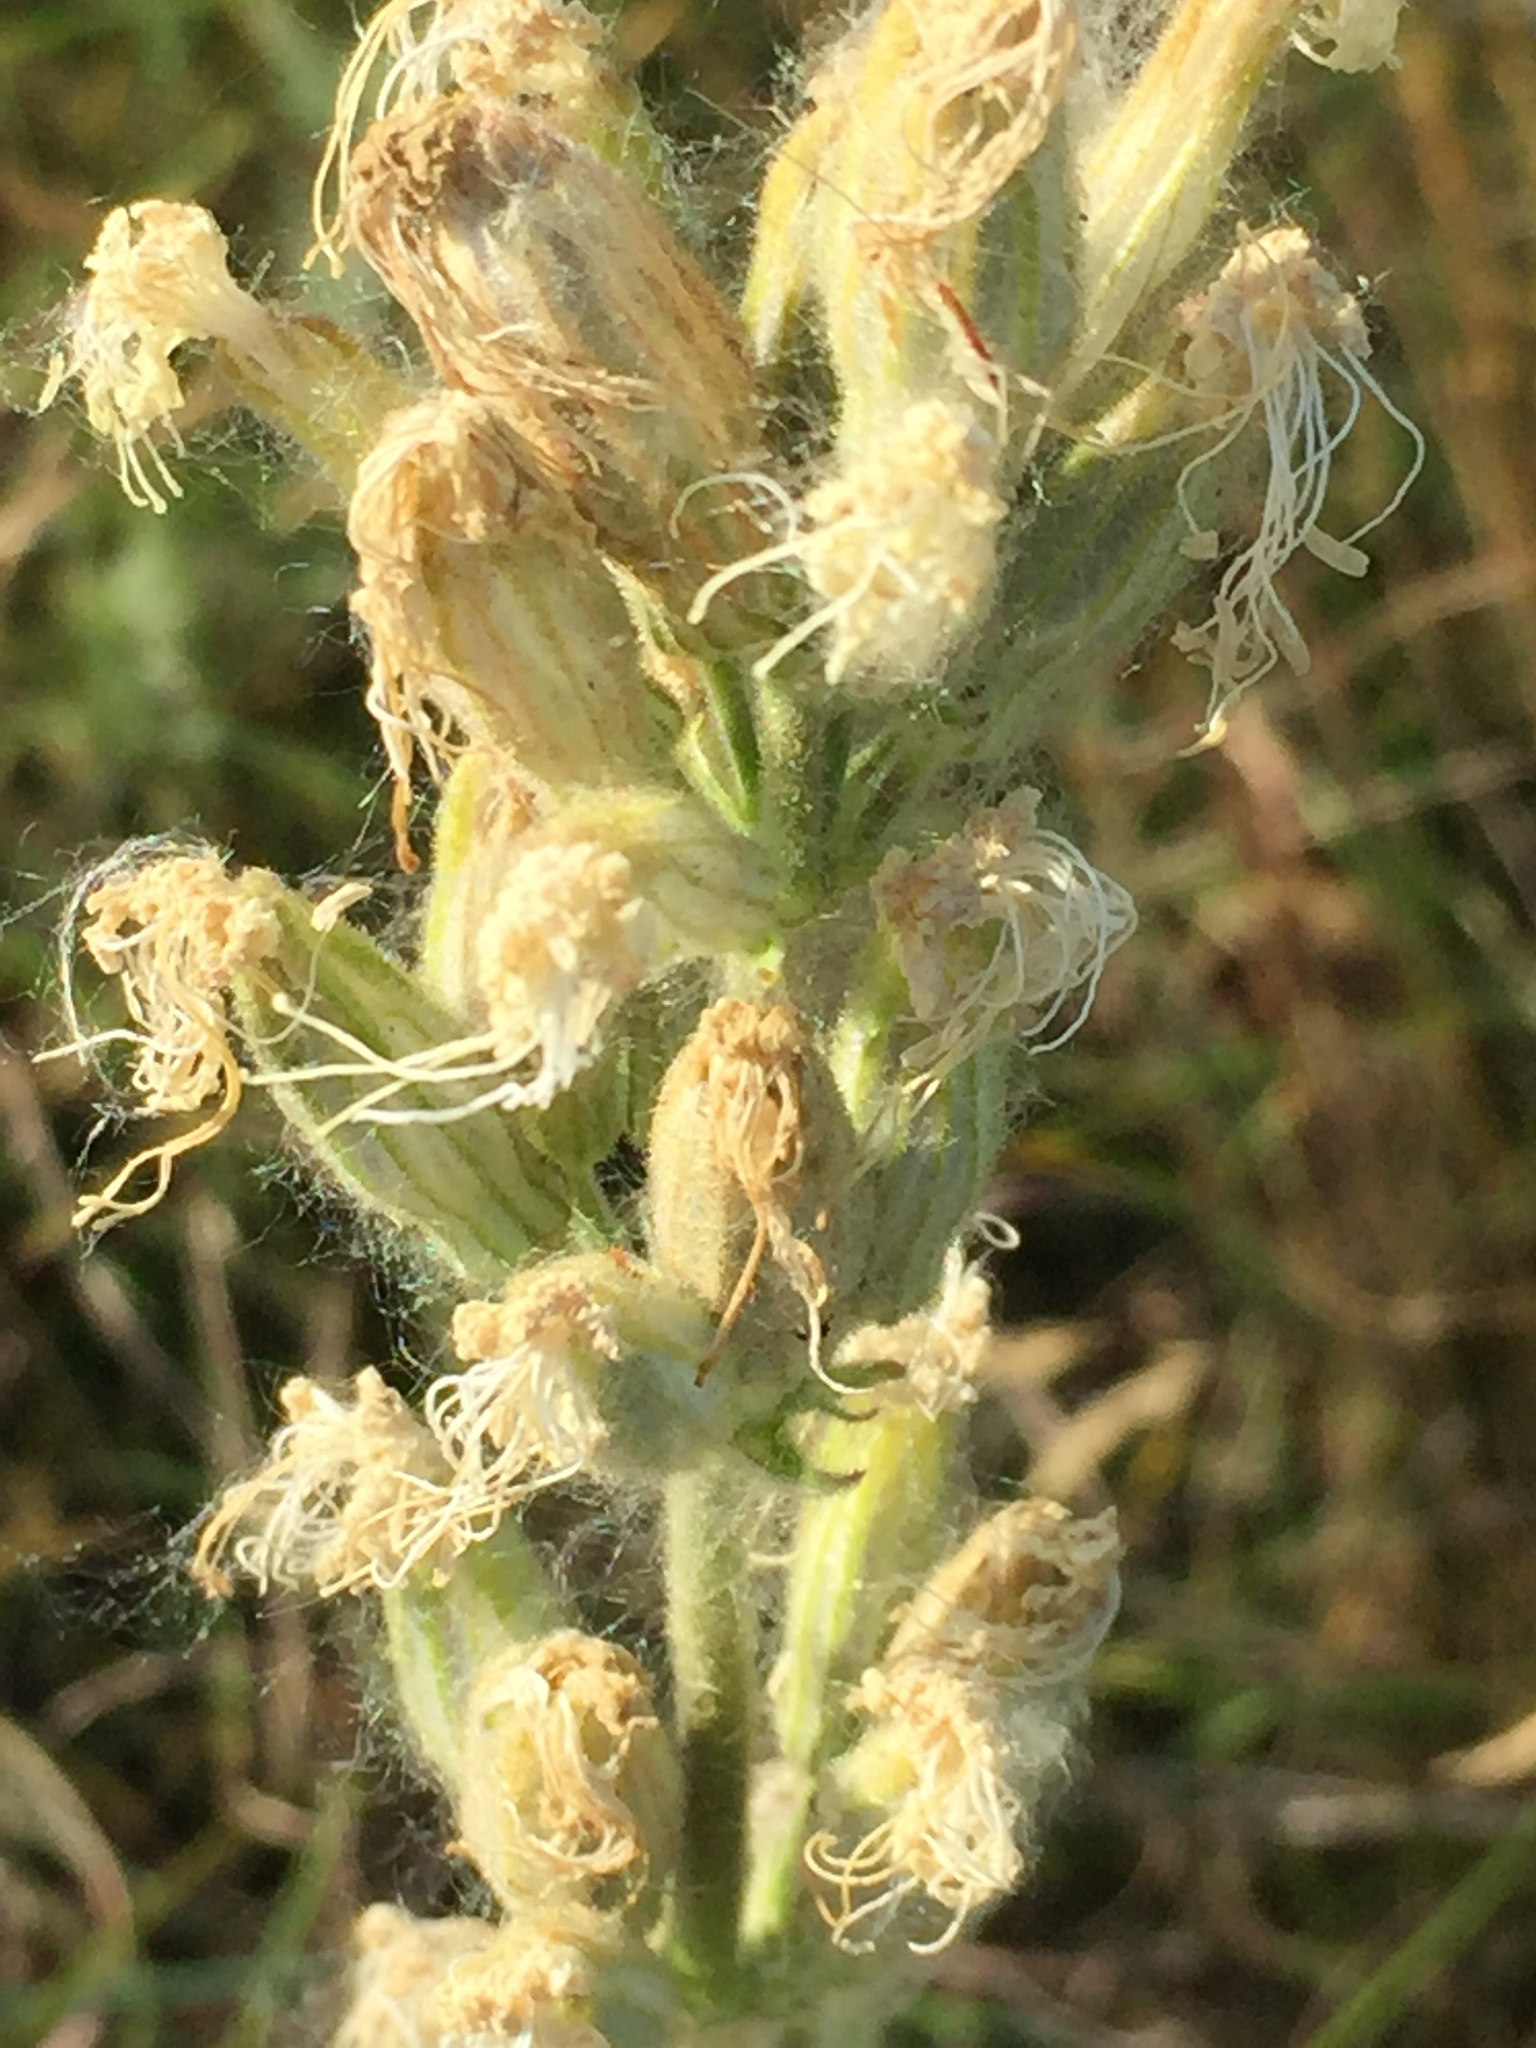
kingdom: Plantae
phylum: Tracheophyta
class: Magnoliopsida
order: Caryophyllales
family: Caryophyllaceae
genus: Silene
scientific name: Silene viscosa
